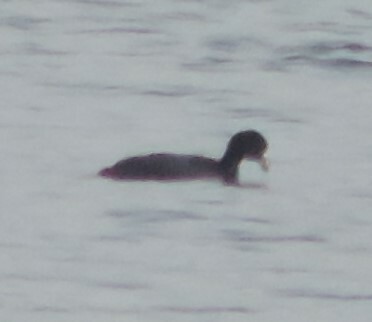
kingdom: Animalia
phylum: Chordata
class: Aves
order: Gruiformes
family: Rallidae
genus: Fulica
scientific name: Fulica americana
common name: American coot
